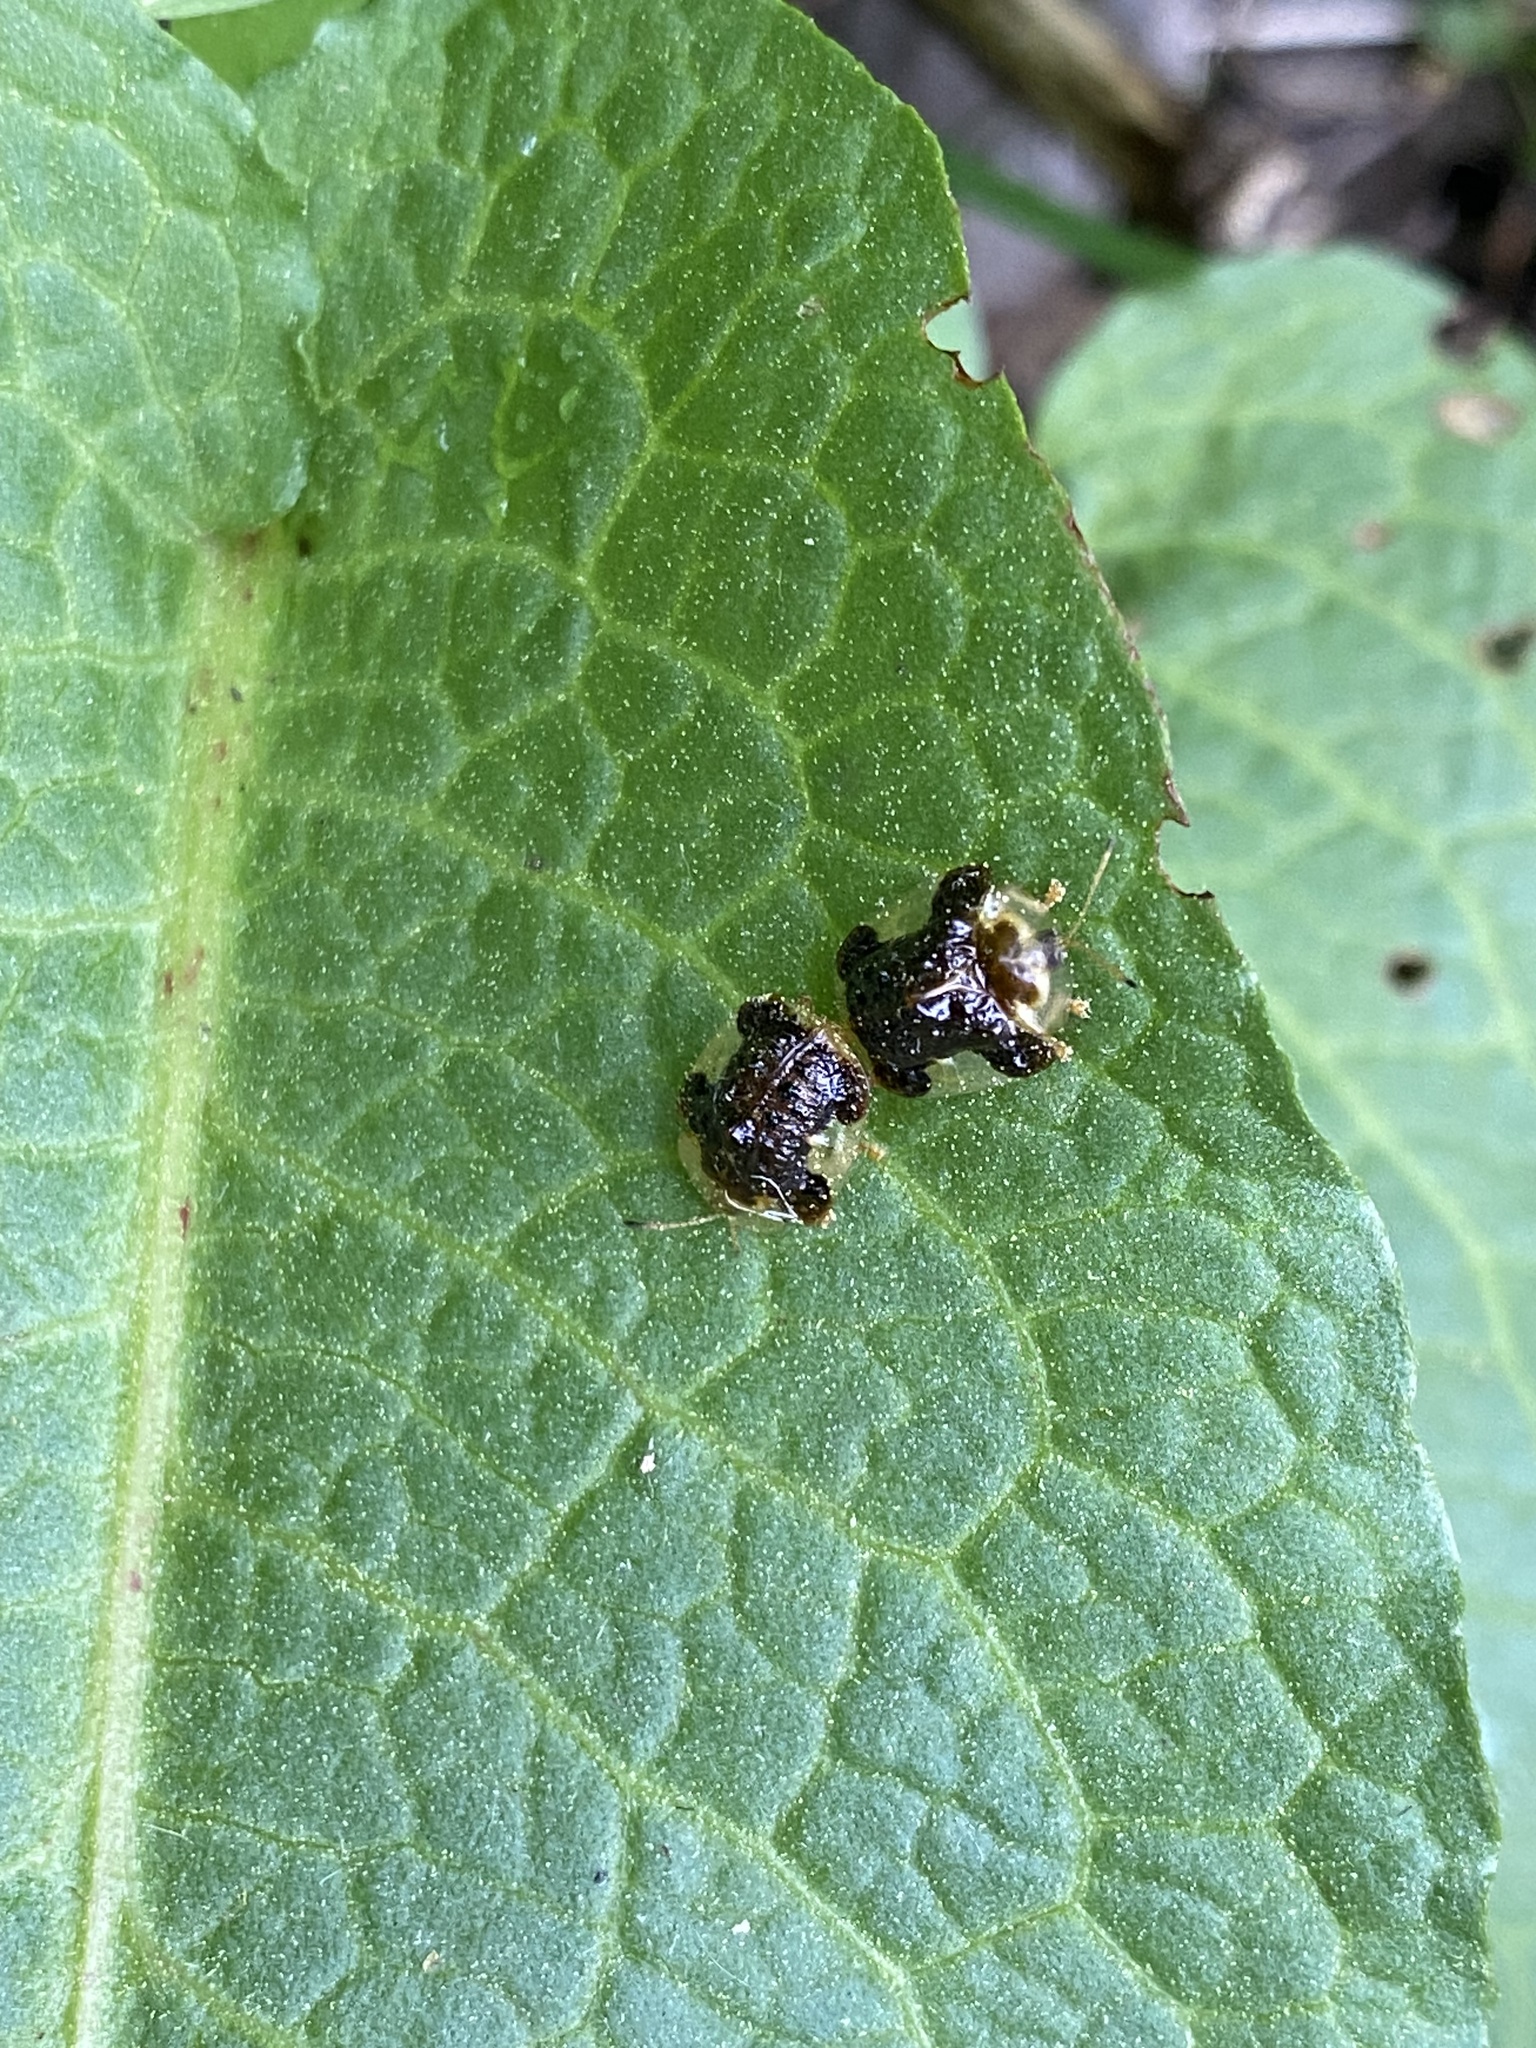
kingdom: Animalia
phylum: Arthropoda
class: Insecta
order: Coleoptera
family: Chrysomelidae
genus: Helocassis
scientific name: Helocassis clavata
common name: Clavate tortoise beetle
